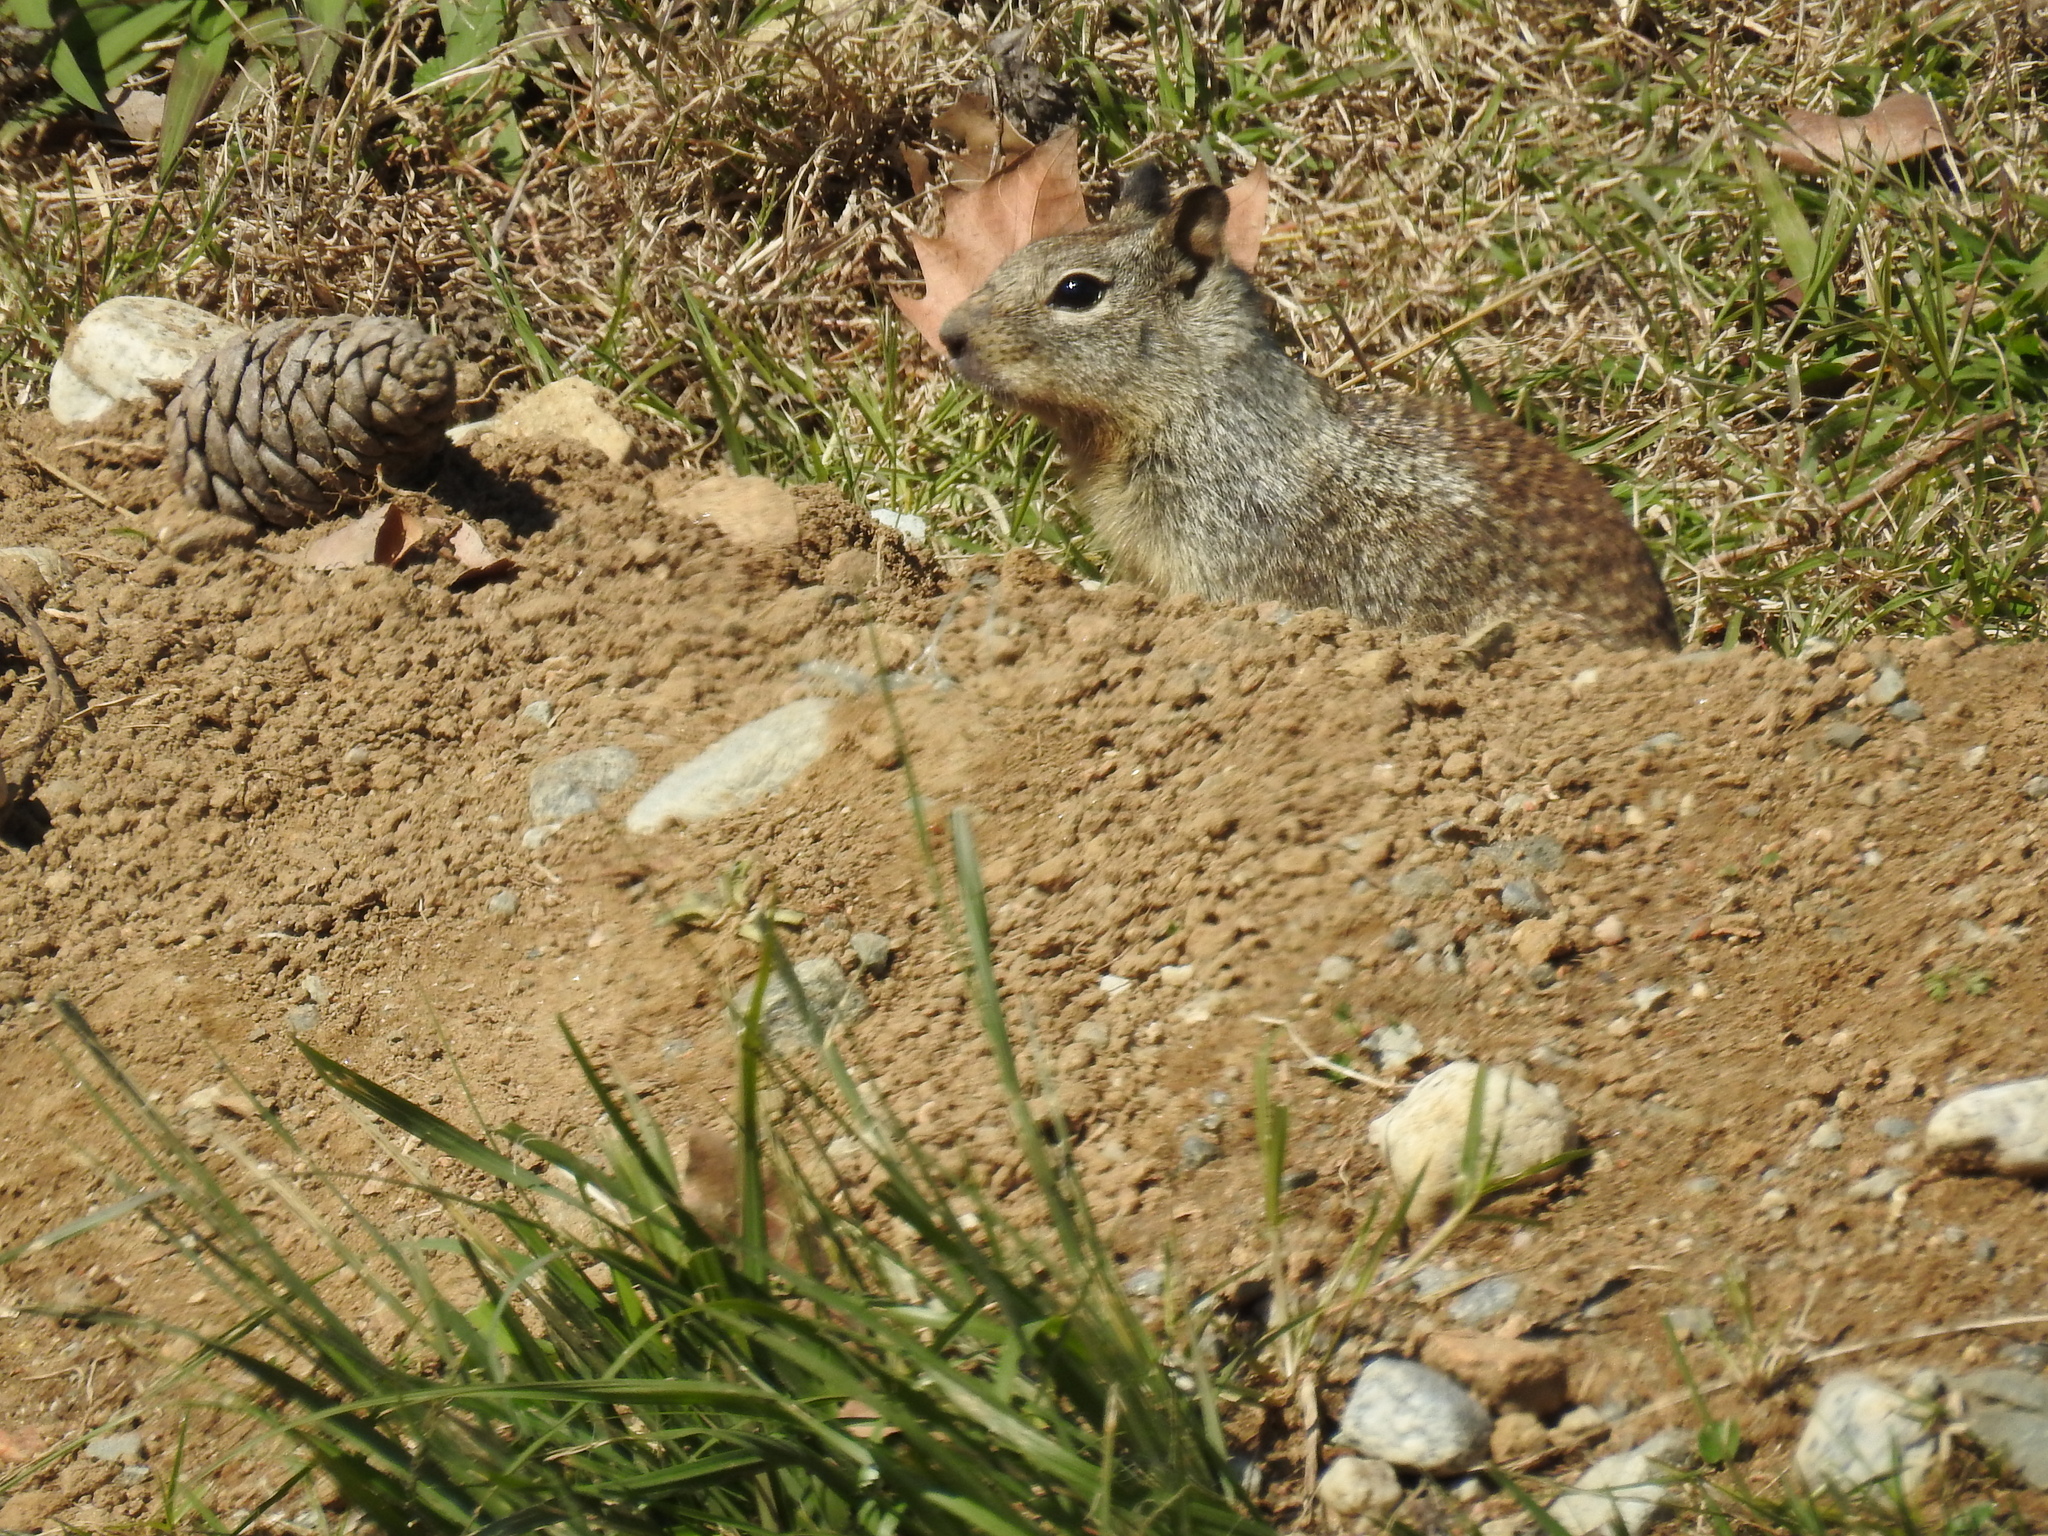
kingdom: Animalia
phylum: Chordata
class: Mammalia
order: Rodentia
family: Sciuridae
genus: Otospermophilus
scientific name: Otospermophilus beecheyi
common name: California ground squirrel
